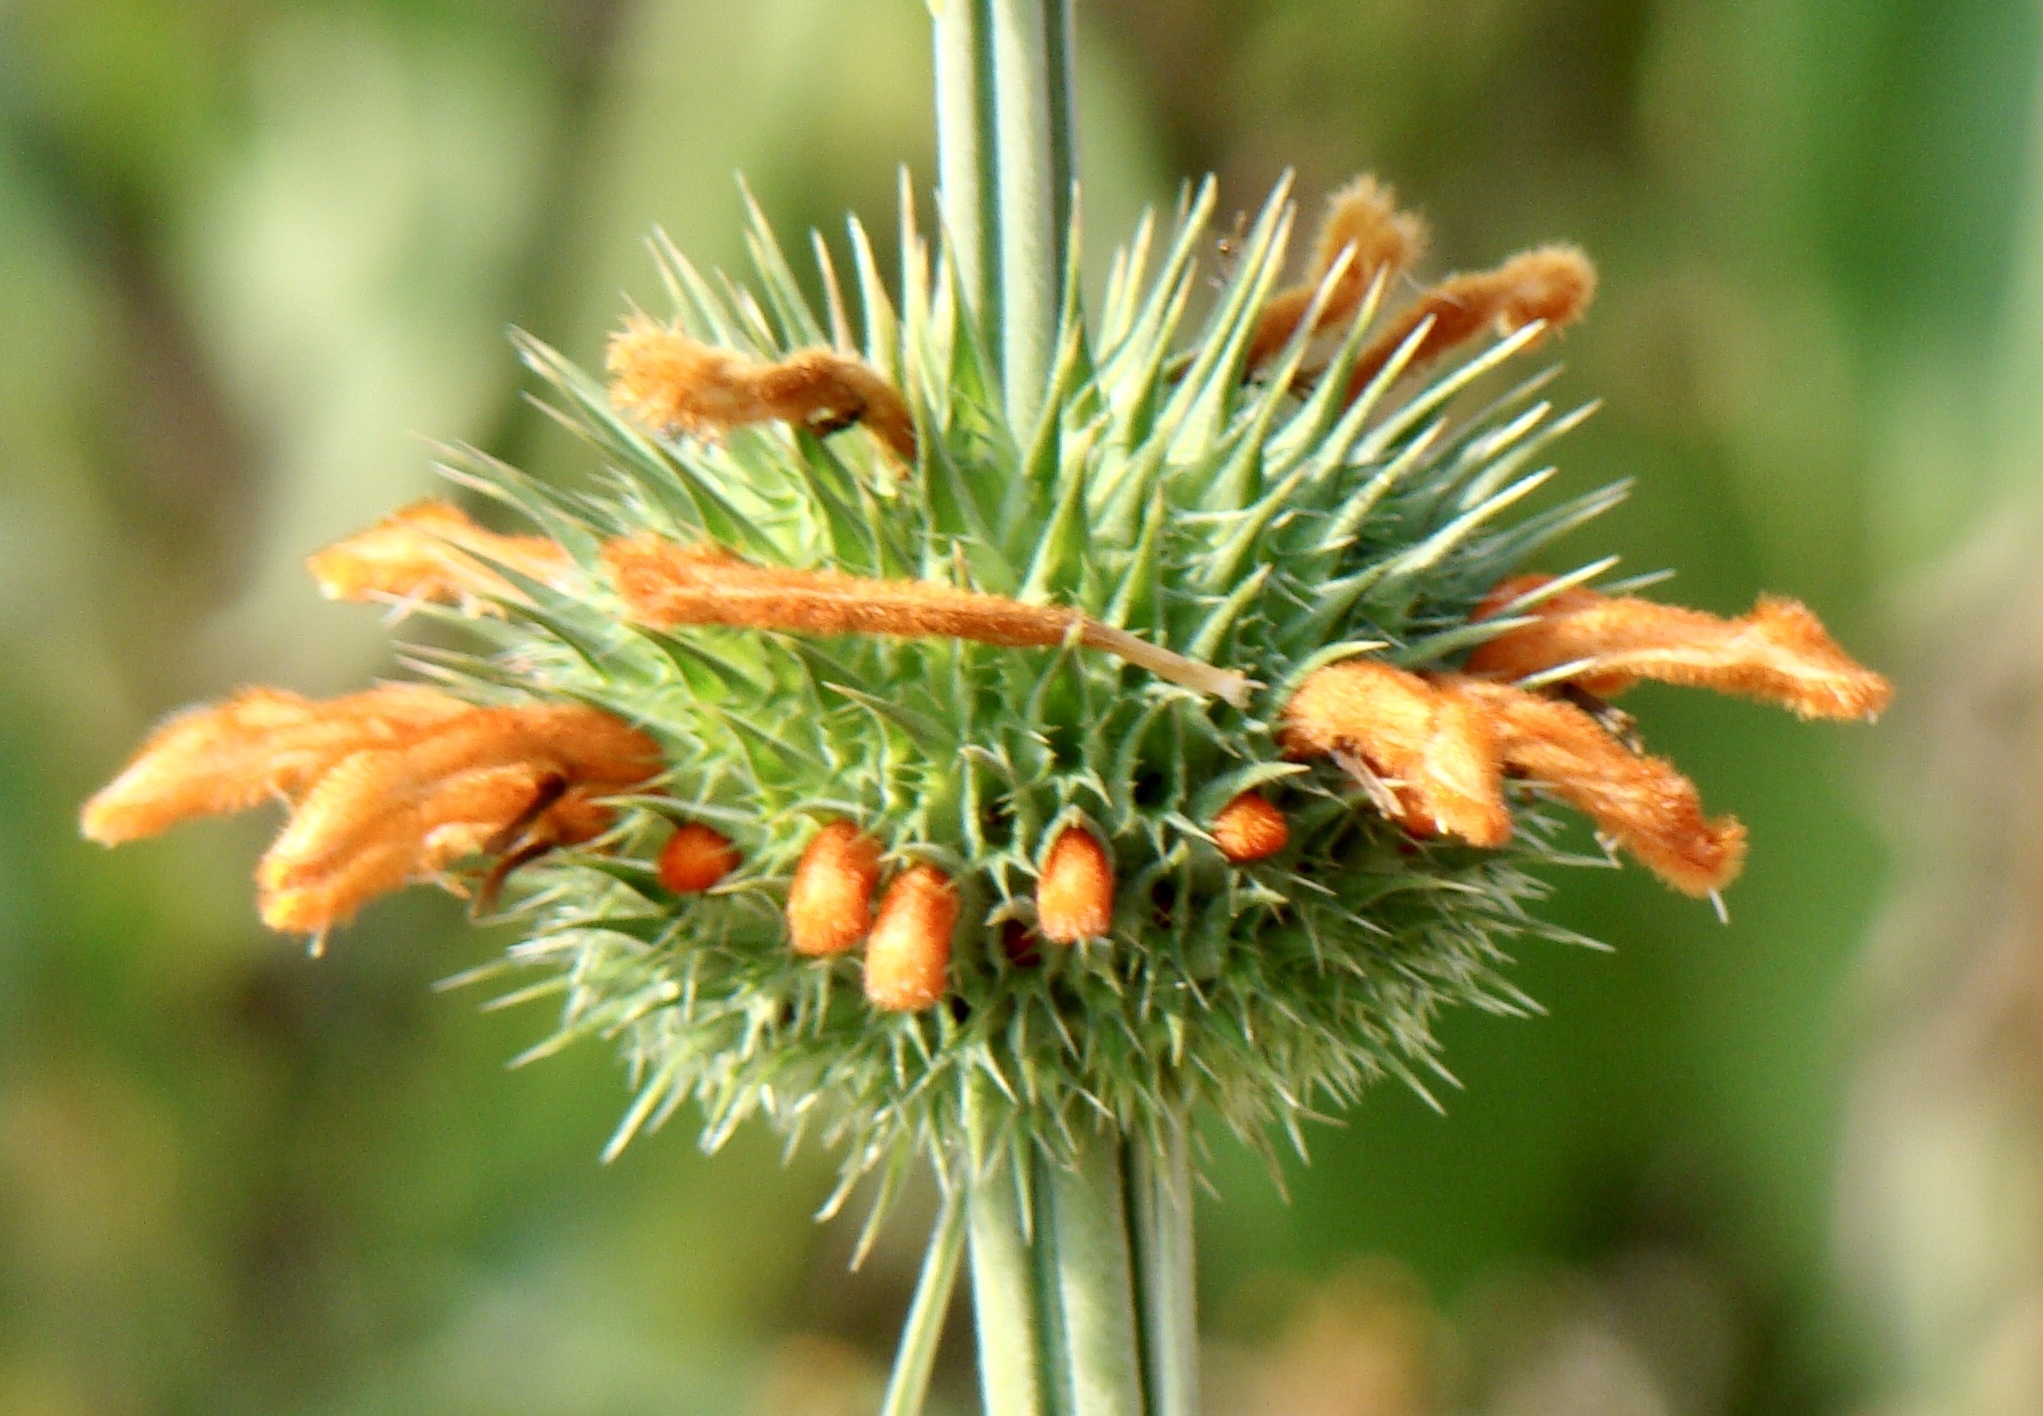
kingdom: Plantae
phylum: Tracheophyta
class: Magnoliopsida
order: Lamiales
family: Lamiaceae
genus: Leonotis
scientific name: Leonotis nepetifolia
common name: Christmas candlestick
